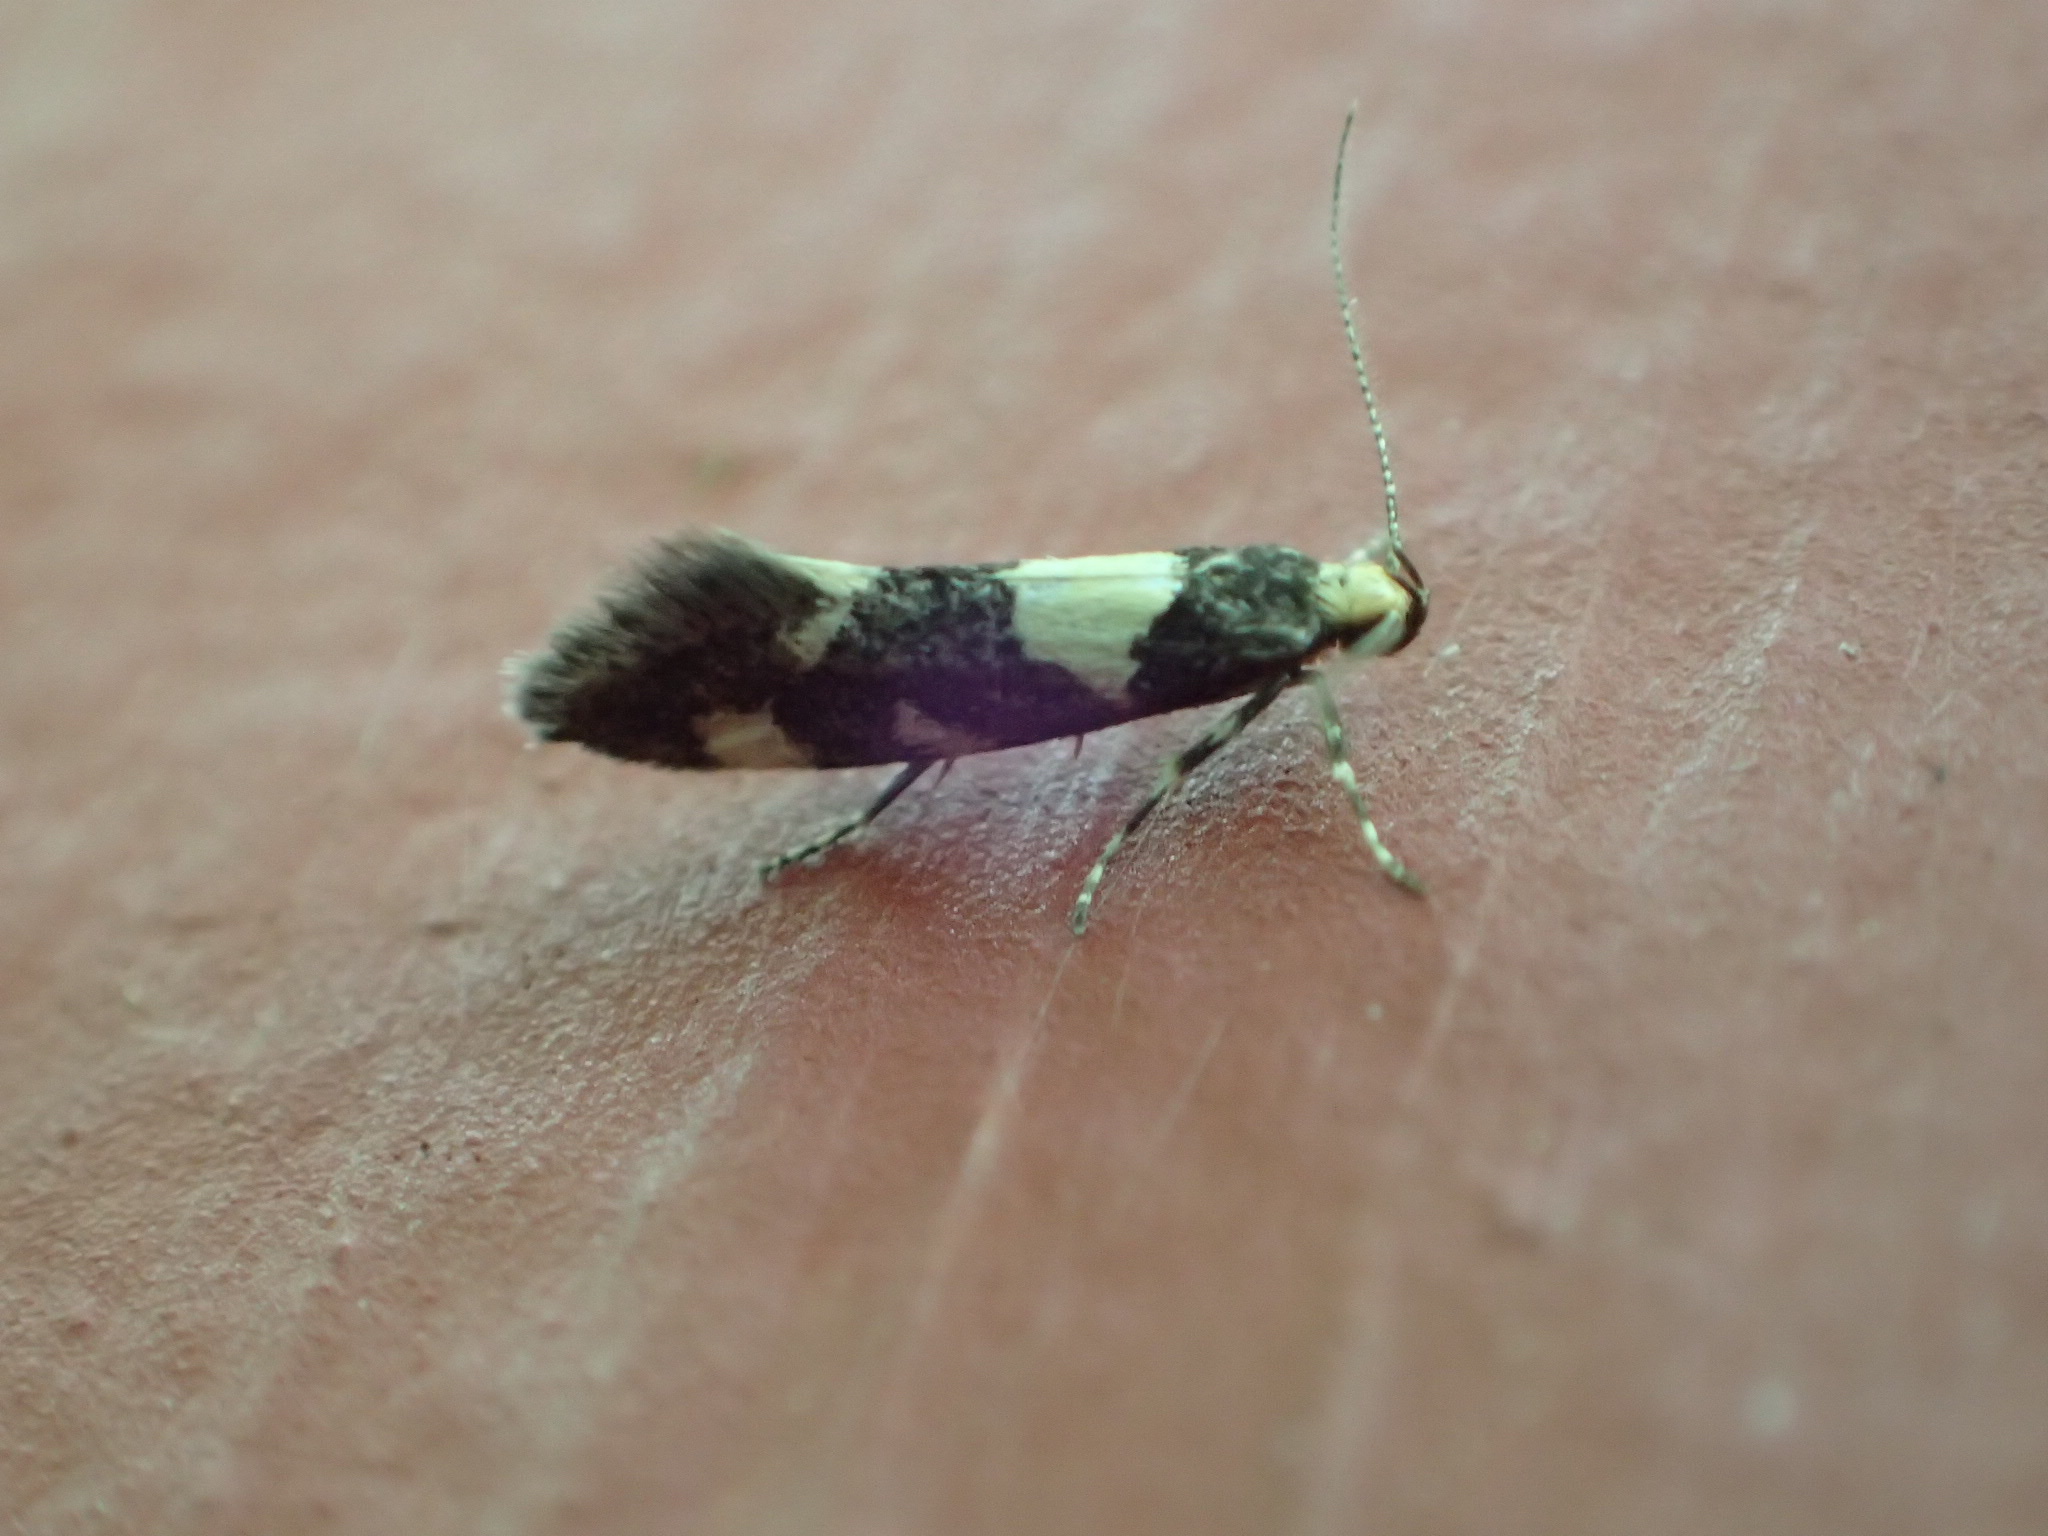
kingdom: Animalia
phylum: Arthropoda
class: Insecta
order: Lepidoptera
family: Oecophoridae
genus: Brymblia
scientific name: Brymblia quadrimaculella
